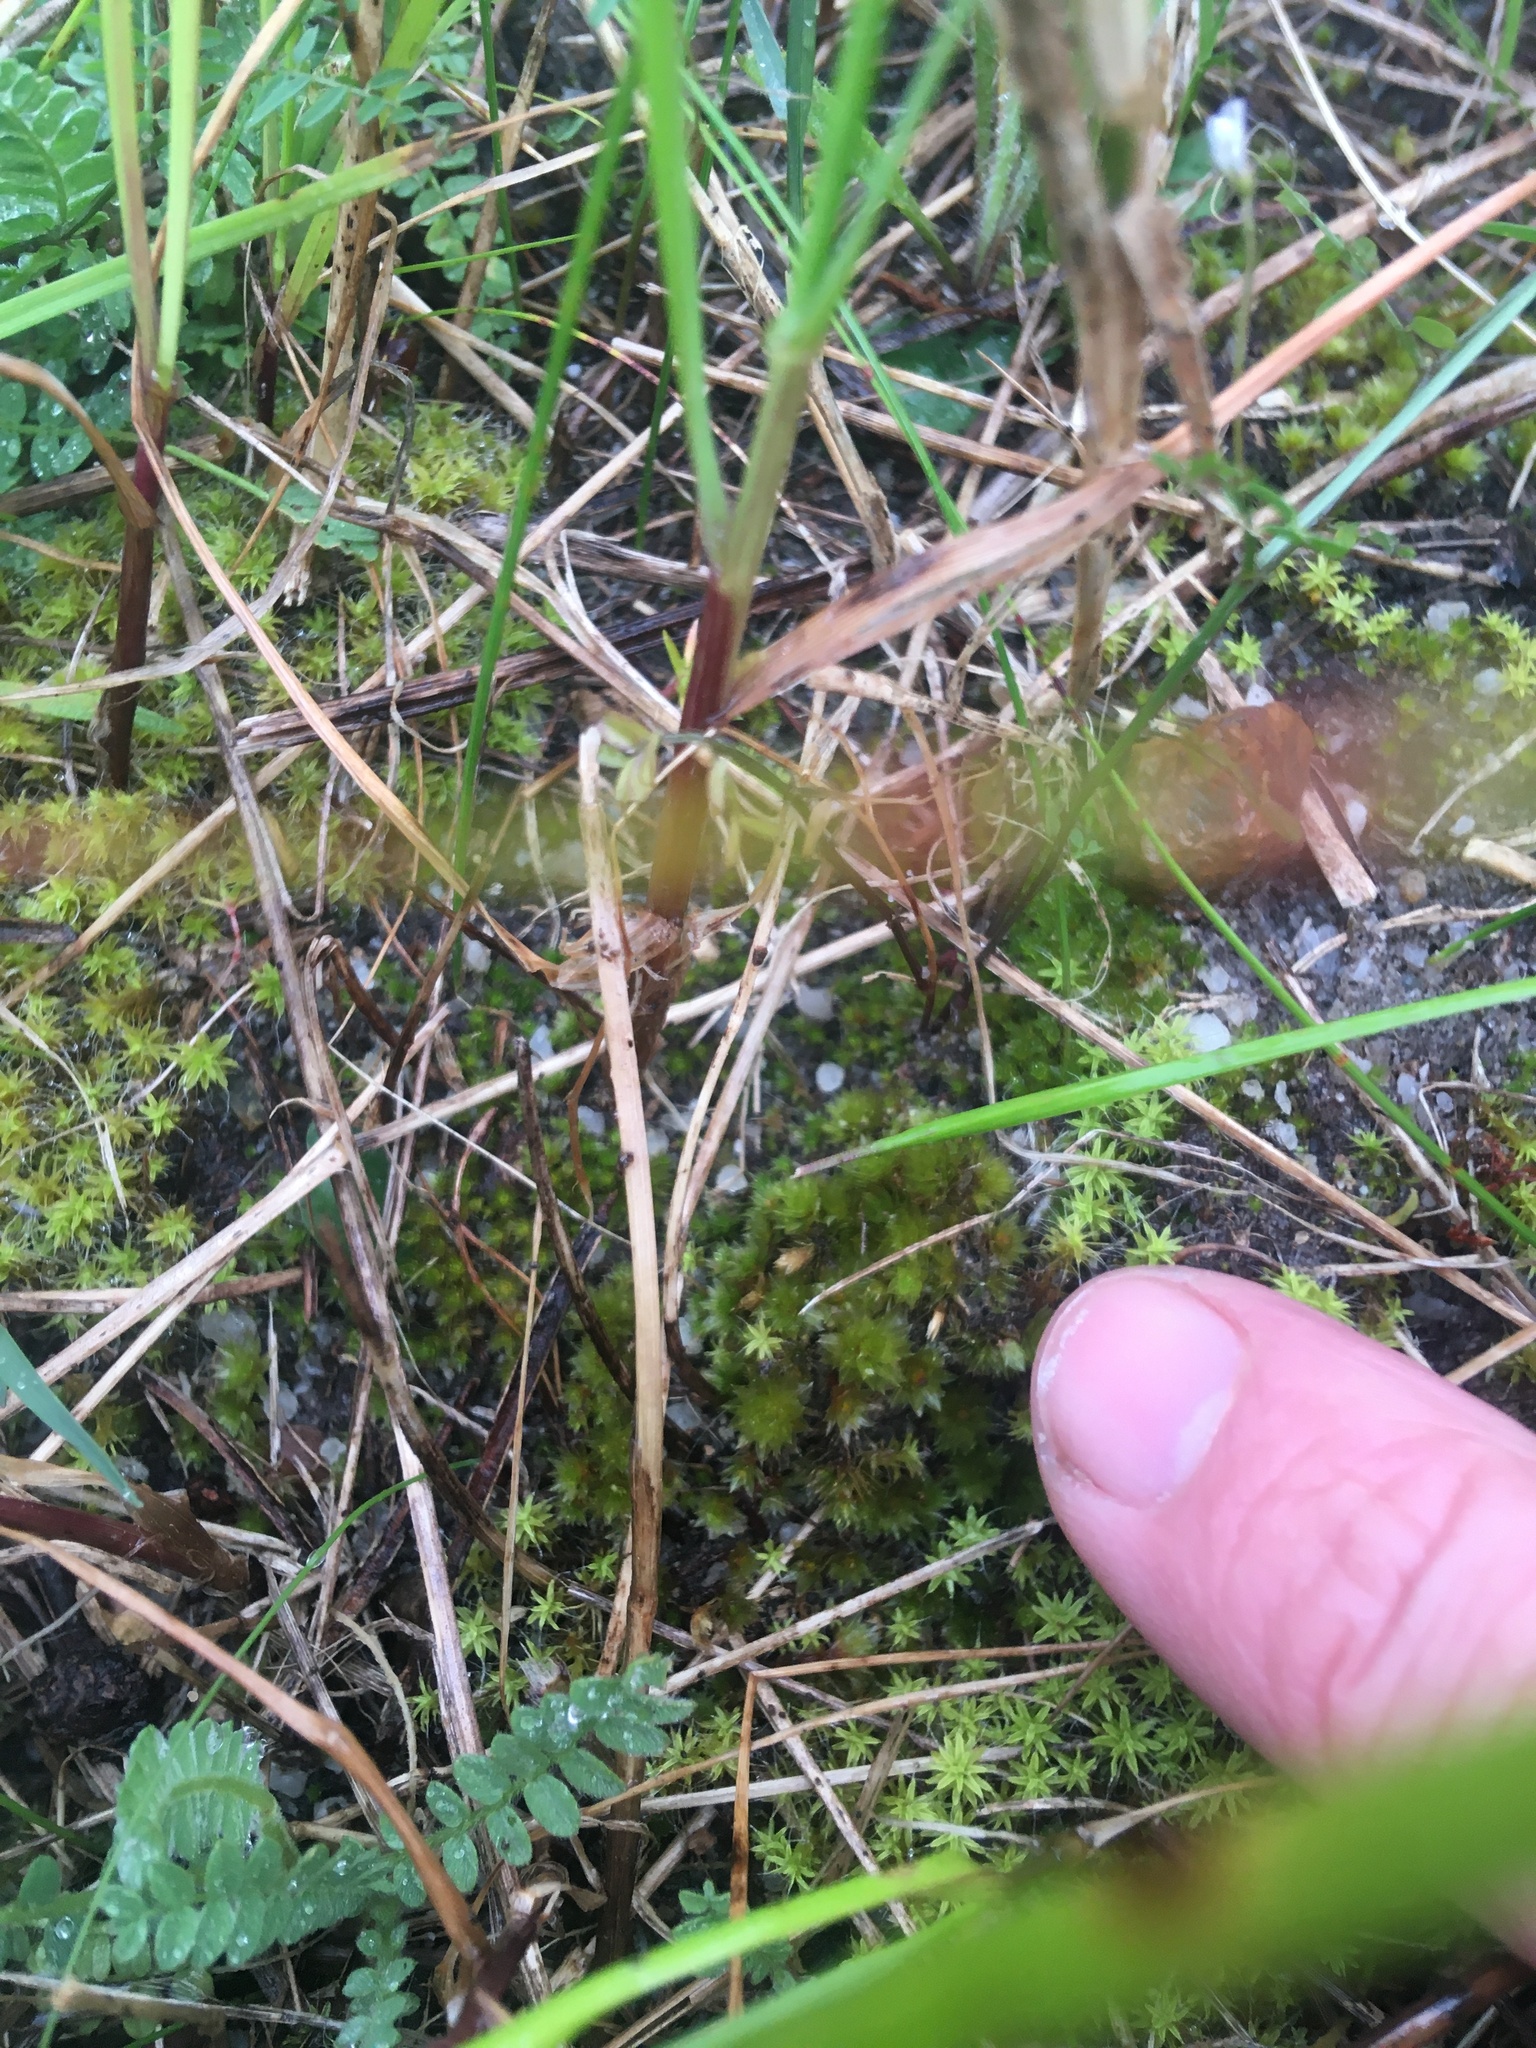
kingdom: Plantae
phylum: Bryophyta
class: Bryopsida
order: Bryales
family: Bryaceae
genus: Rosulabryum
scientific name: Rosulabryum canariense
